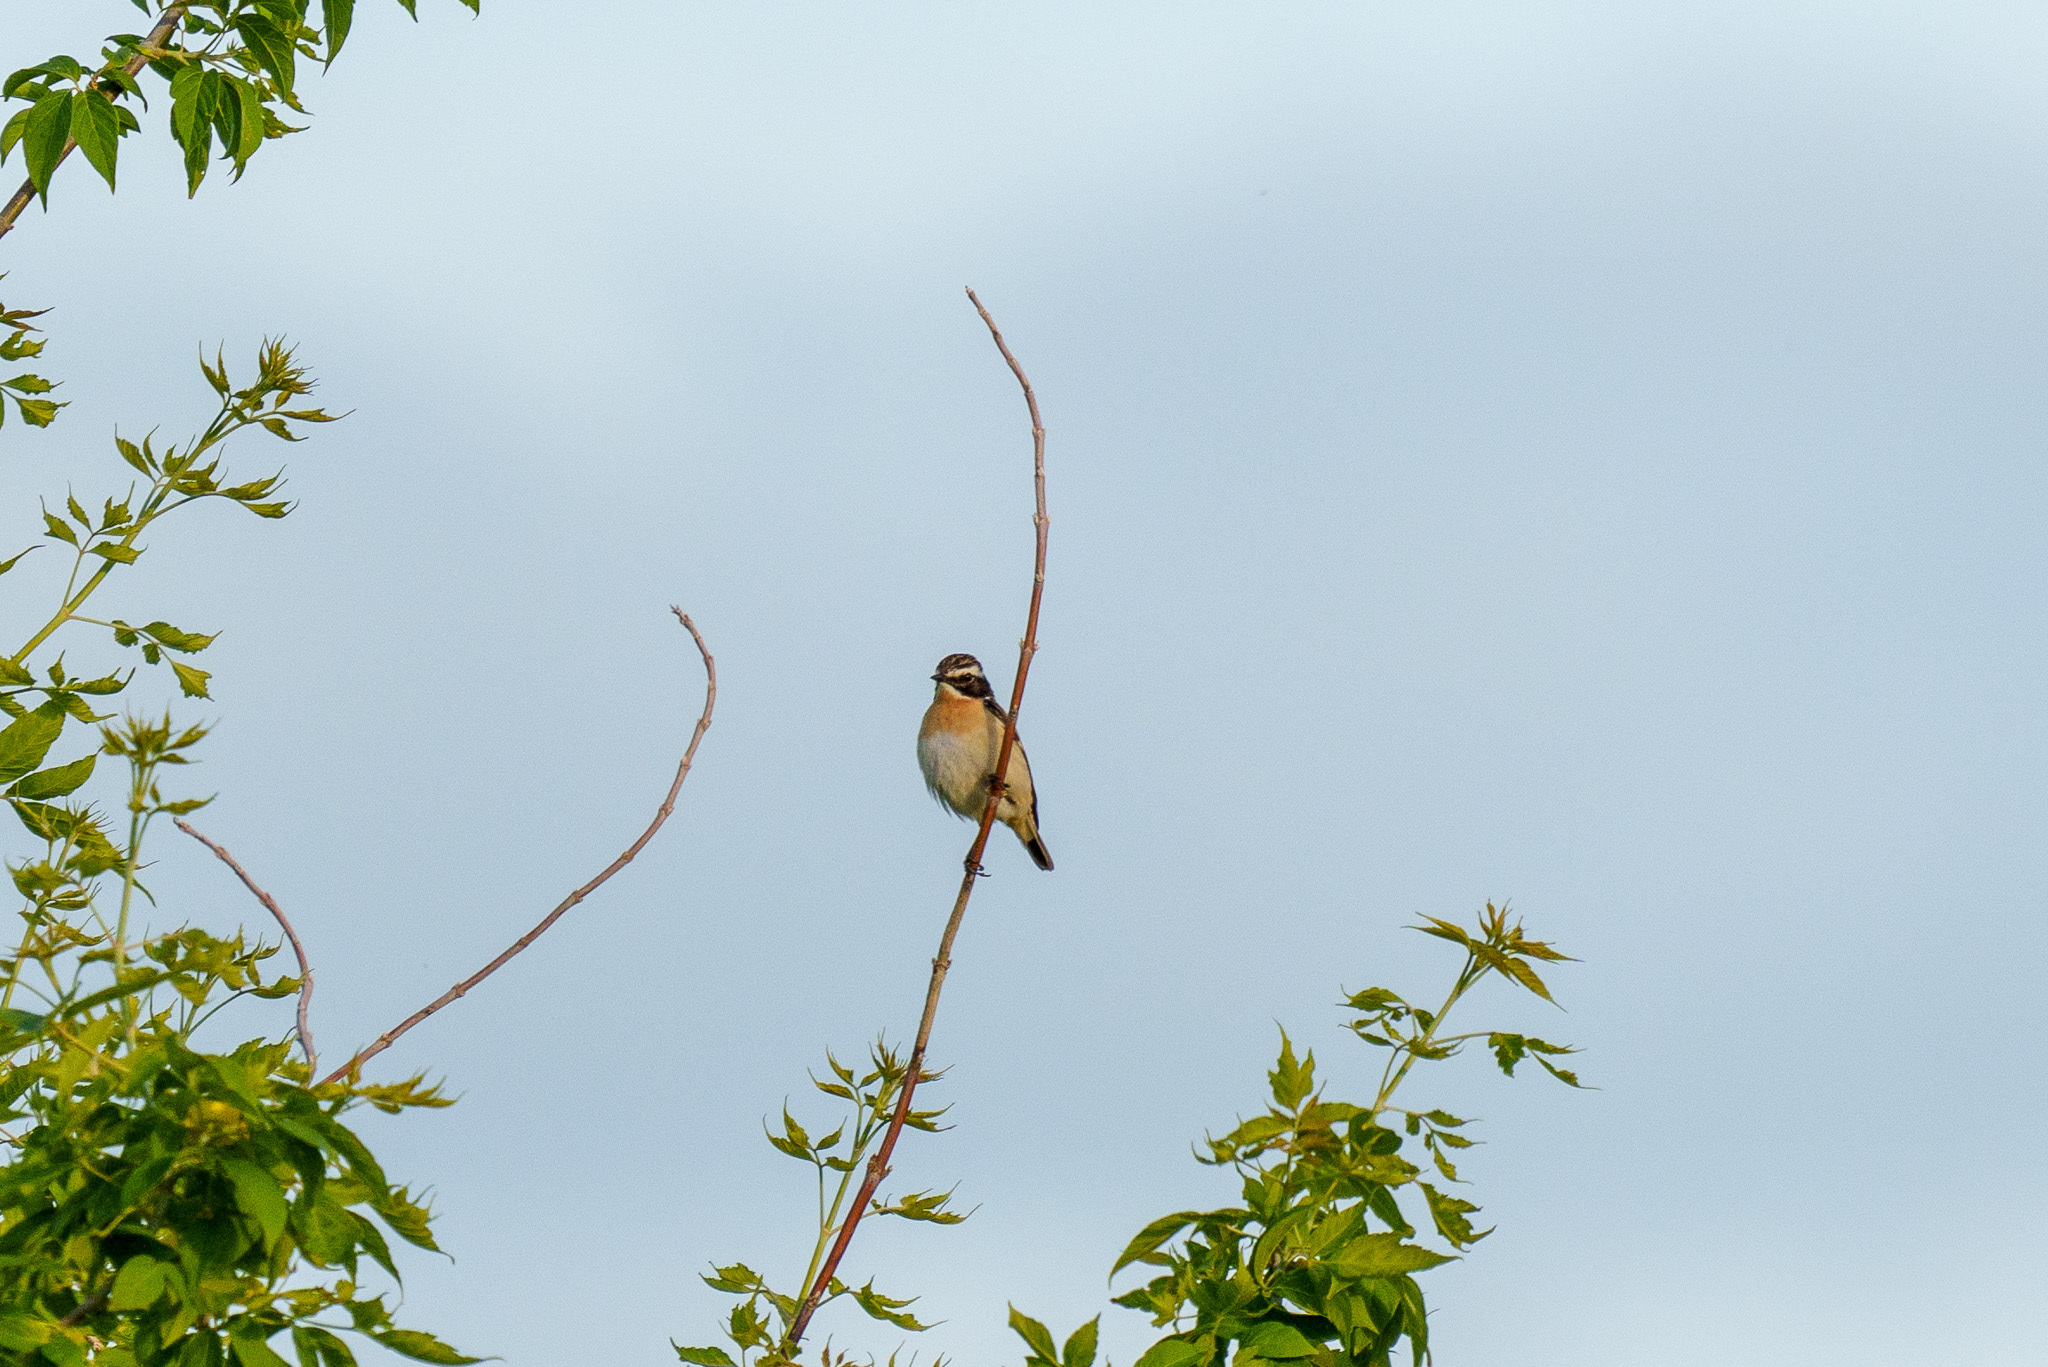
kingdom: Animalia
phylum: Chordata
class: Aves
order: Passeriformes
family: Muscicapidae
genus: Saxicola
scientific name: Saxicola rubetra
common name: Whinchat
